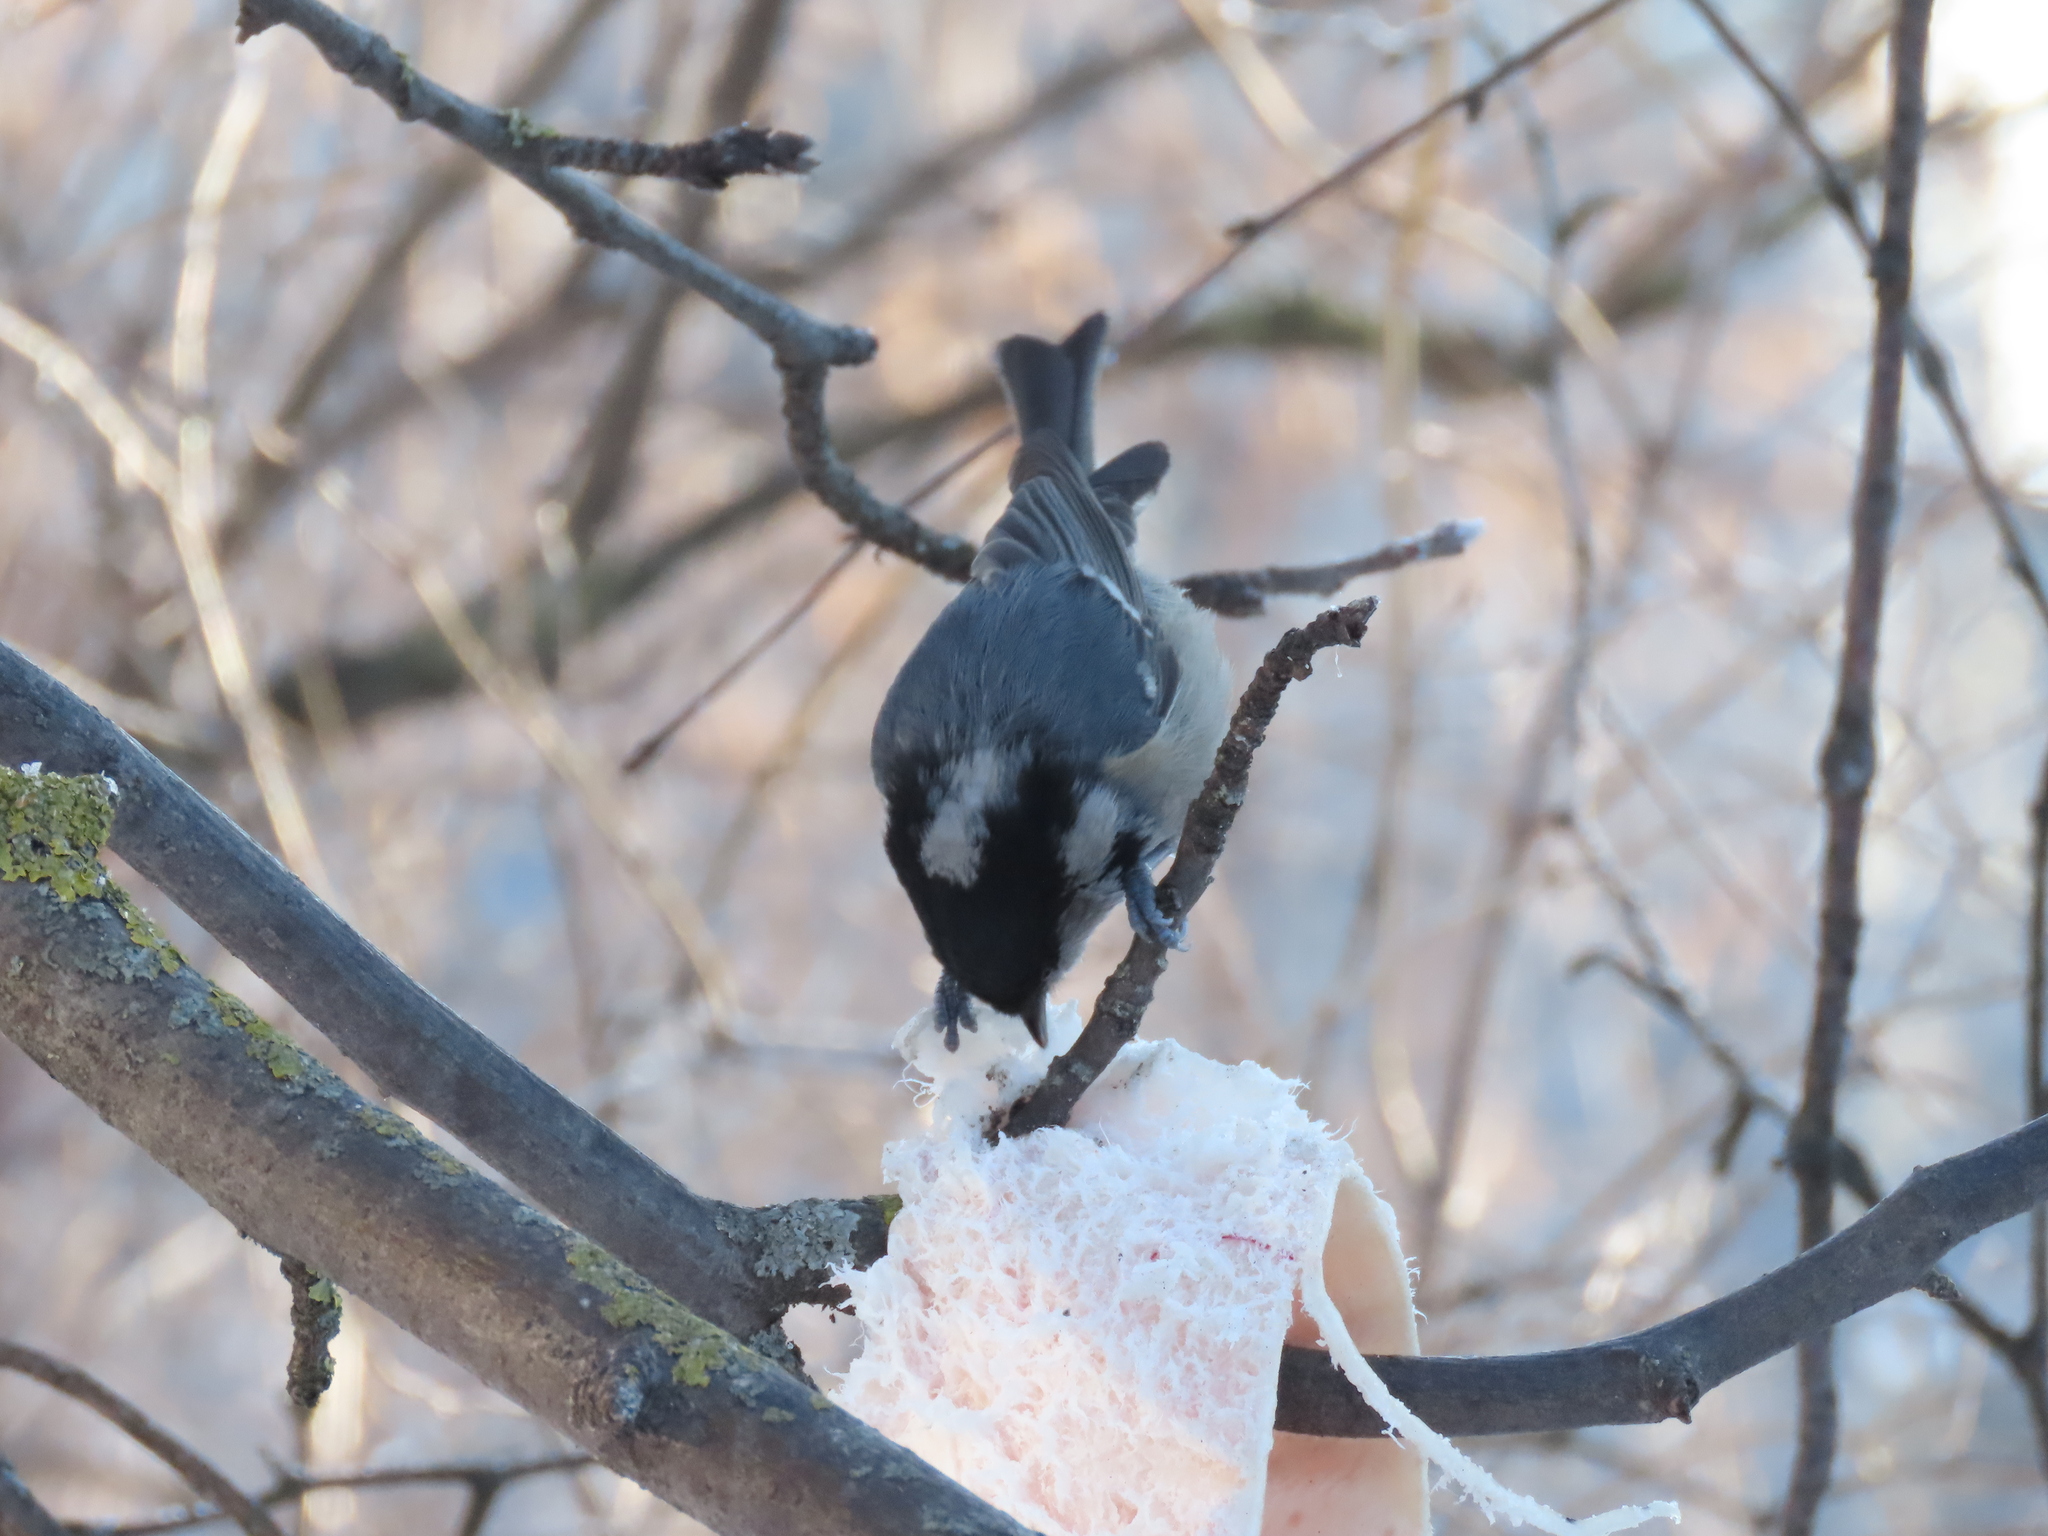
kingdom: Animalia
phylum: Chordata
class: Aves
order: Passeriformes
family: Paridae
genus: Periparus
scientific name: Periparus ater
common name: Coal tit
